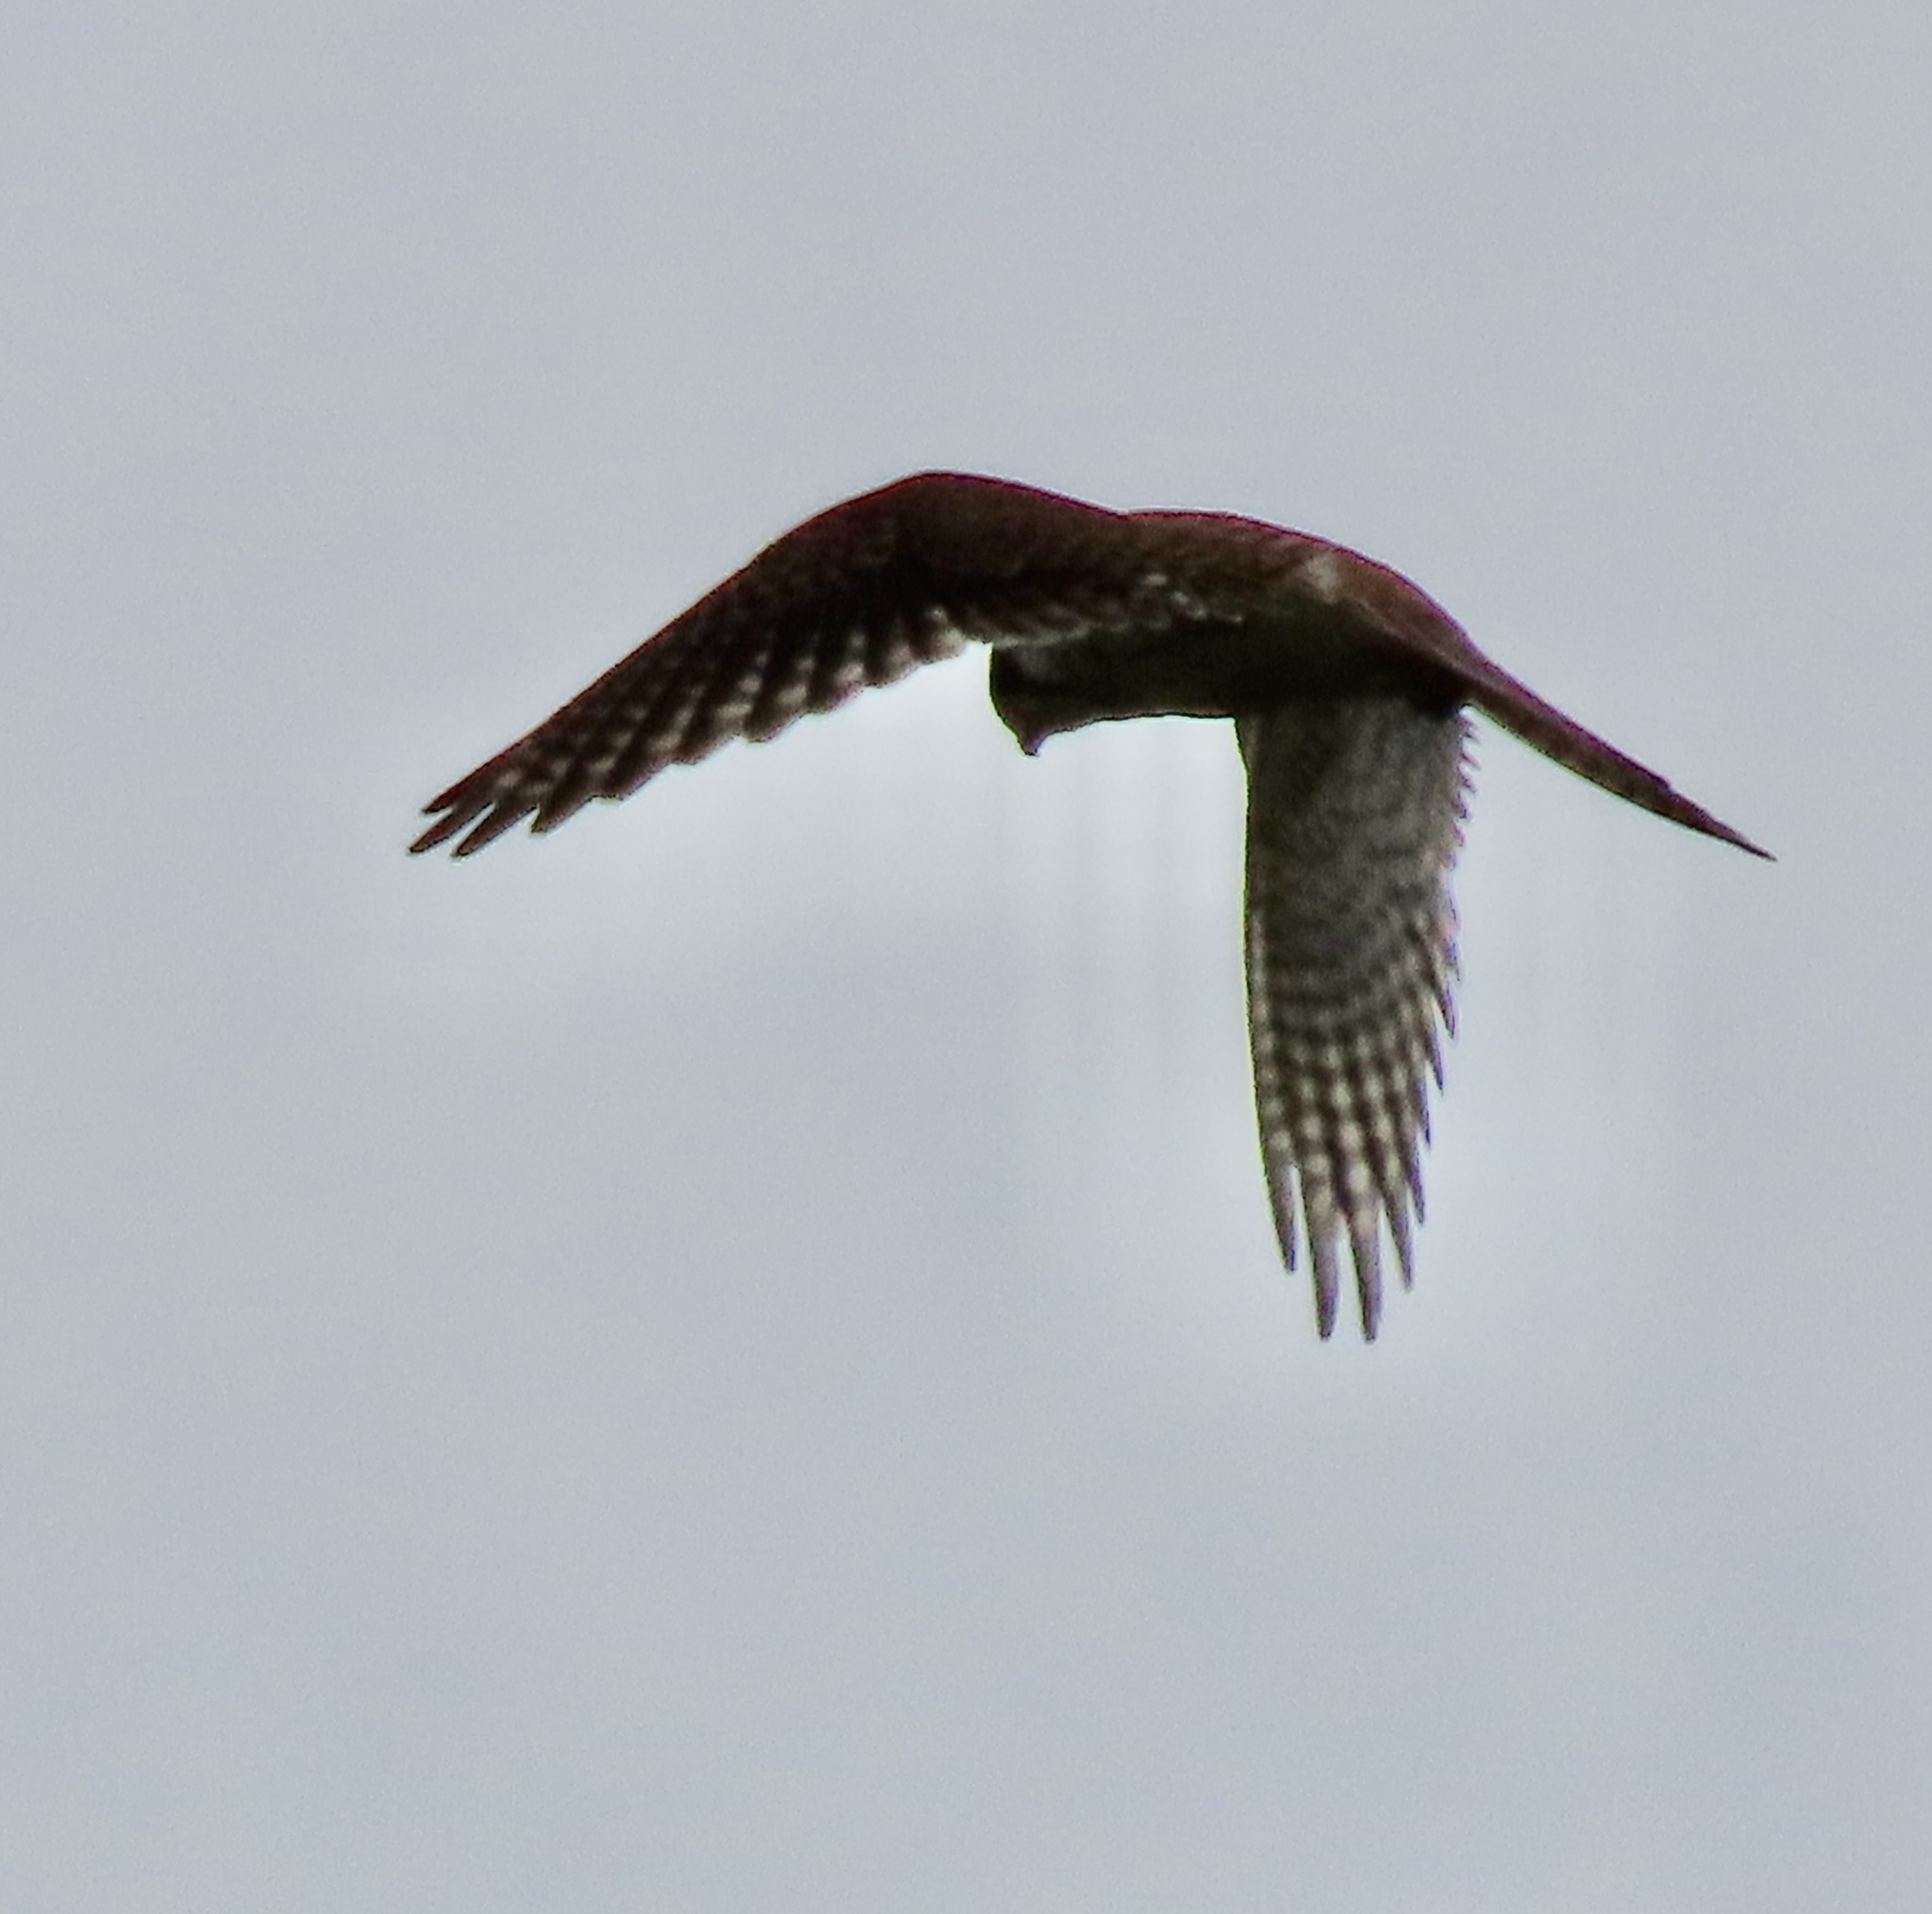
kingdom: Animalia
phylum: Chordata
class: Aves
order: Falconiformes
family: Falconidae
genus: Falco
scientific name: Falco sparverius
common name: American kestrel
